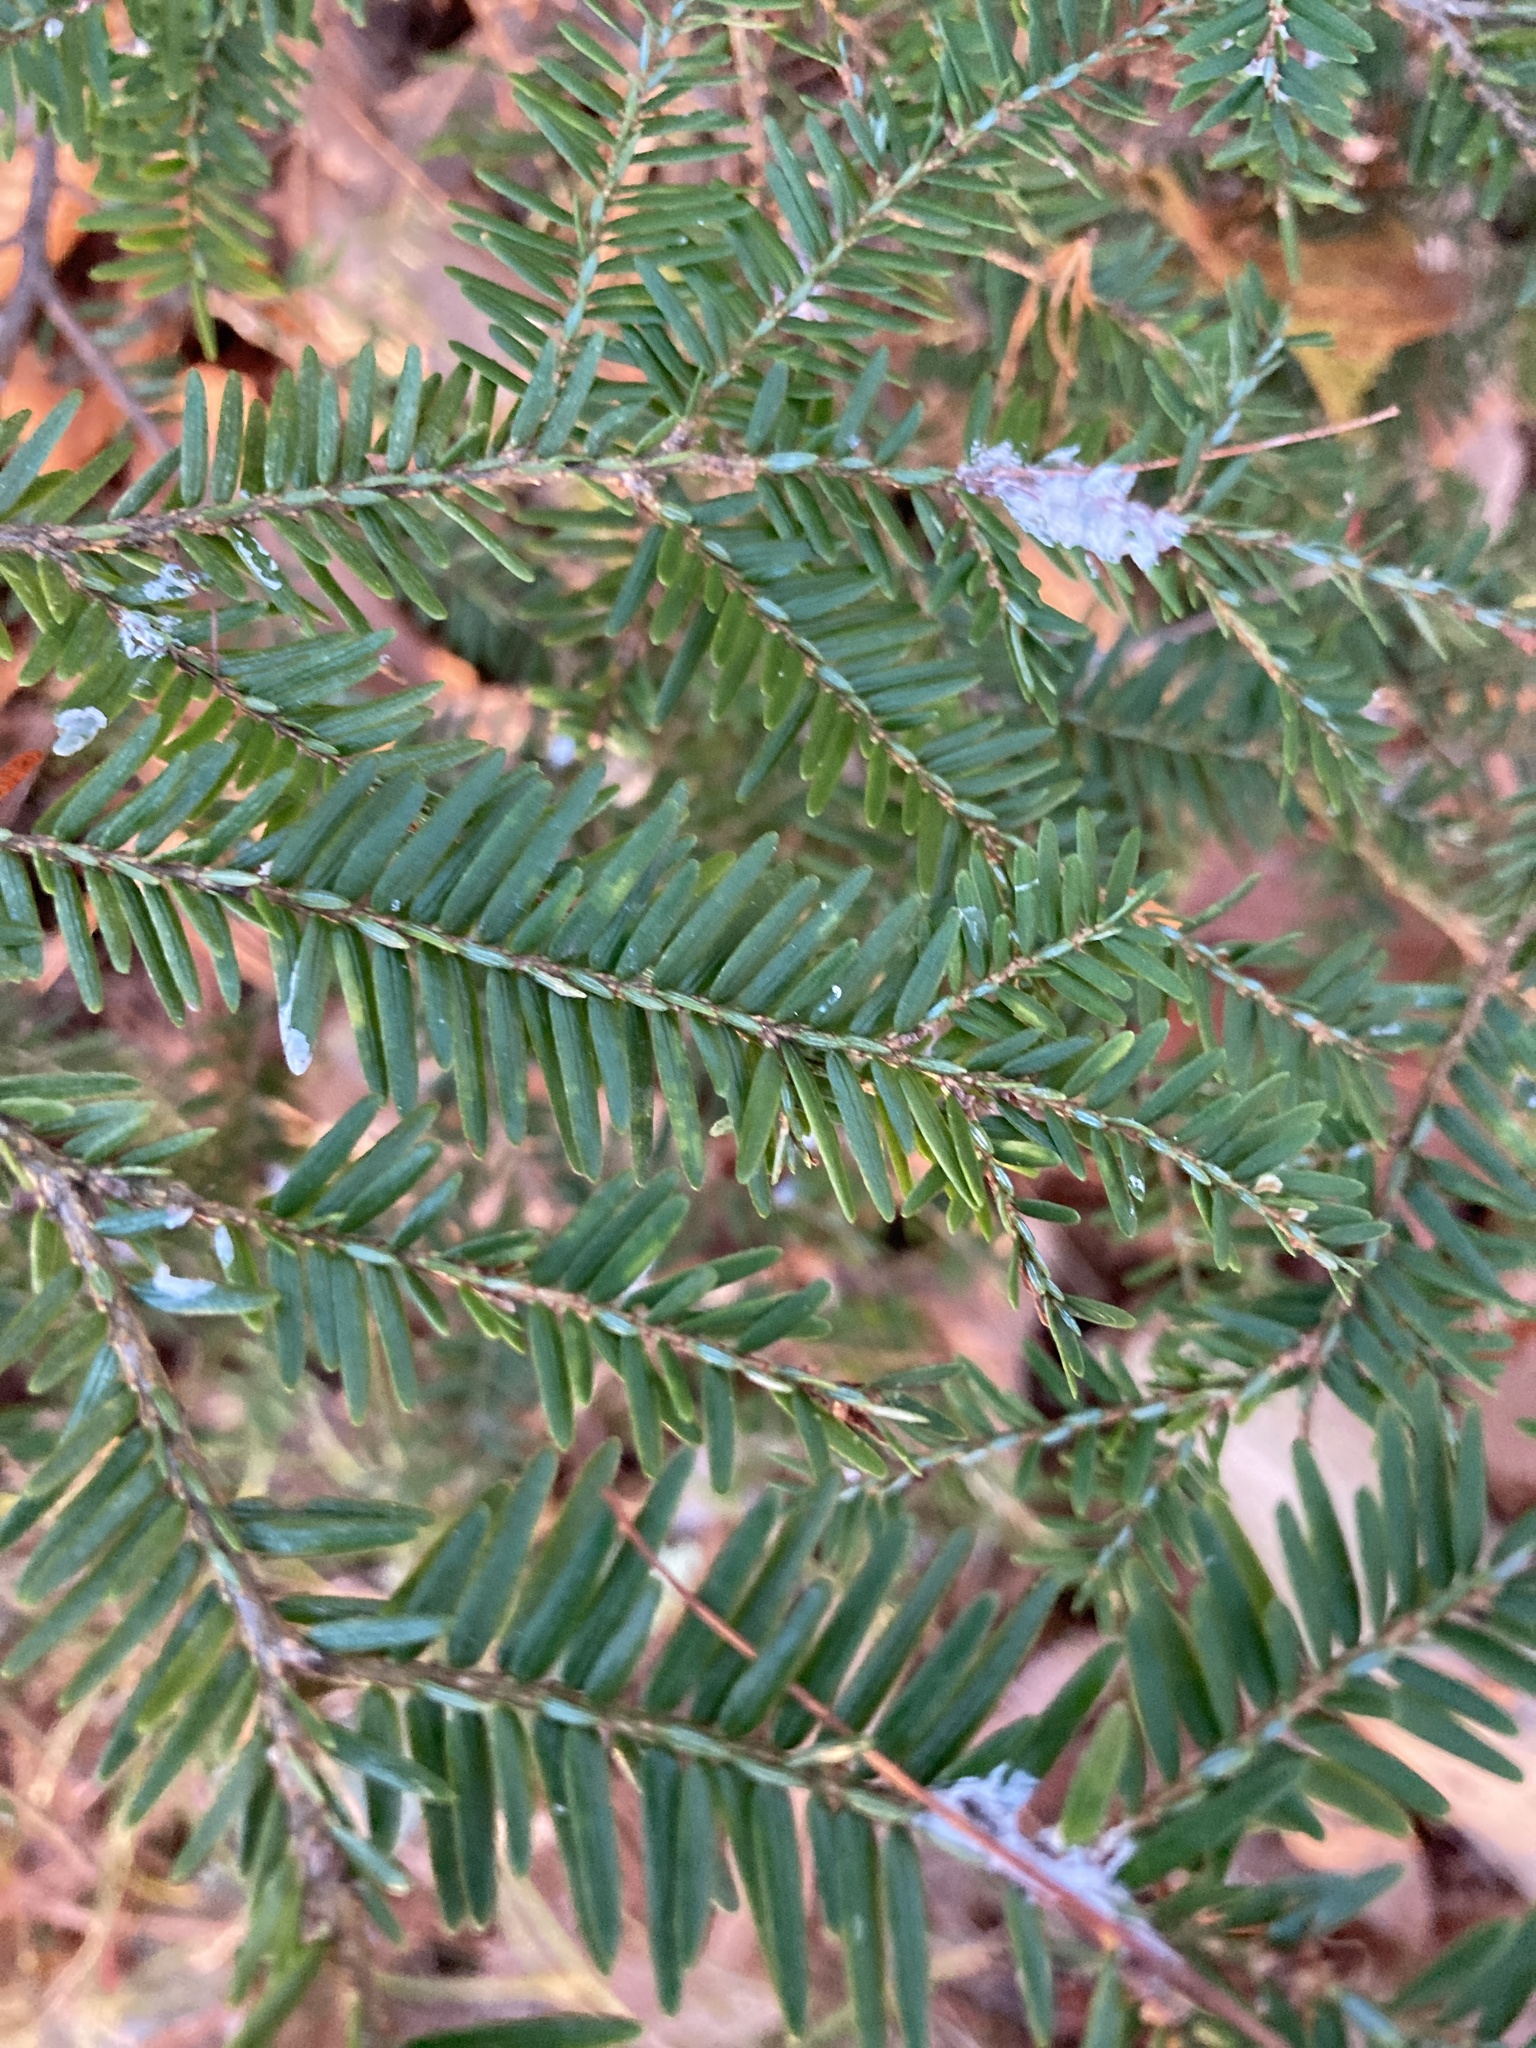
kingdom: Plantae
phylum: Tracheophyta
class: Pinopsida
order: Pinales
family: Pinaceae
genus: Tsuga
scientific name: Tsuga canadensis
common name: Eastern hemlock
